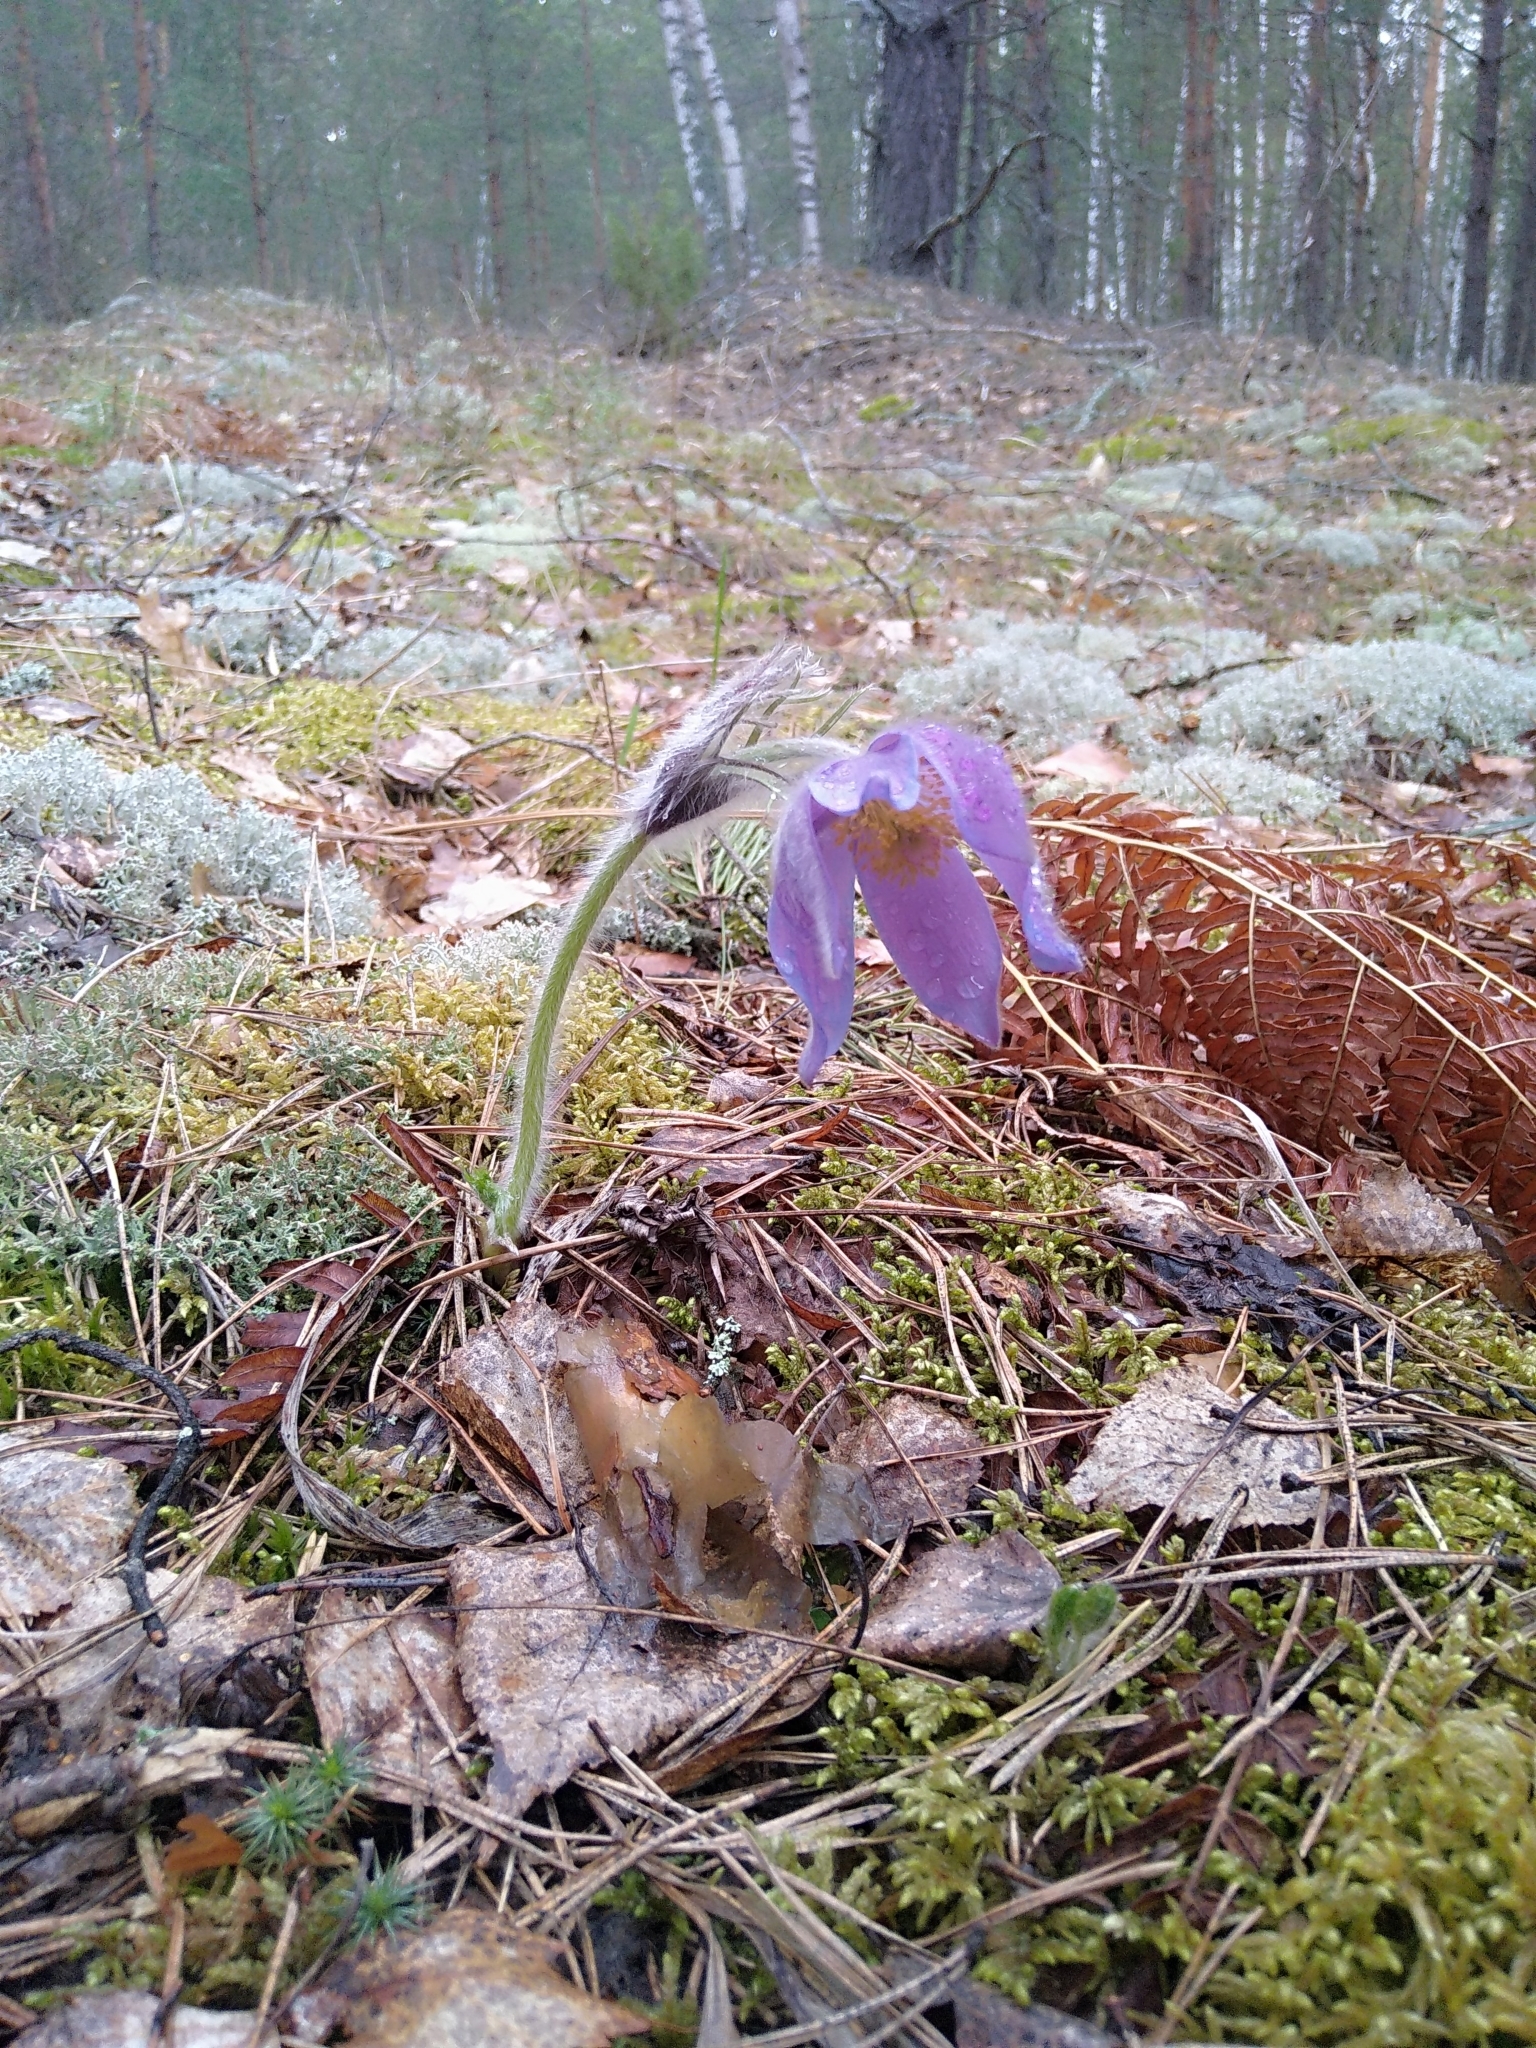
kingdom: Plantae
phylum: Tracheophyta
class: Magnoliopsida
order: Ranunculales
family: Ranunculaceae
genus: Pulsatilla
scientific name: Pulsatilla patens
